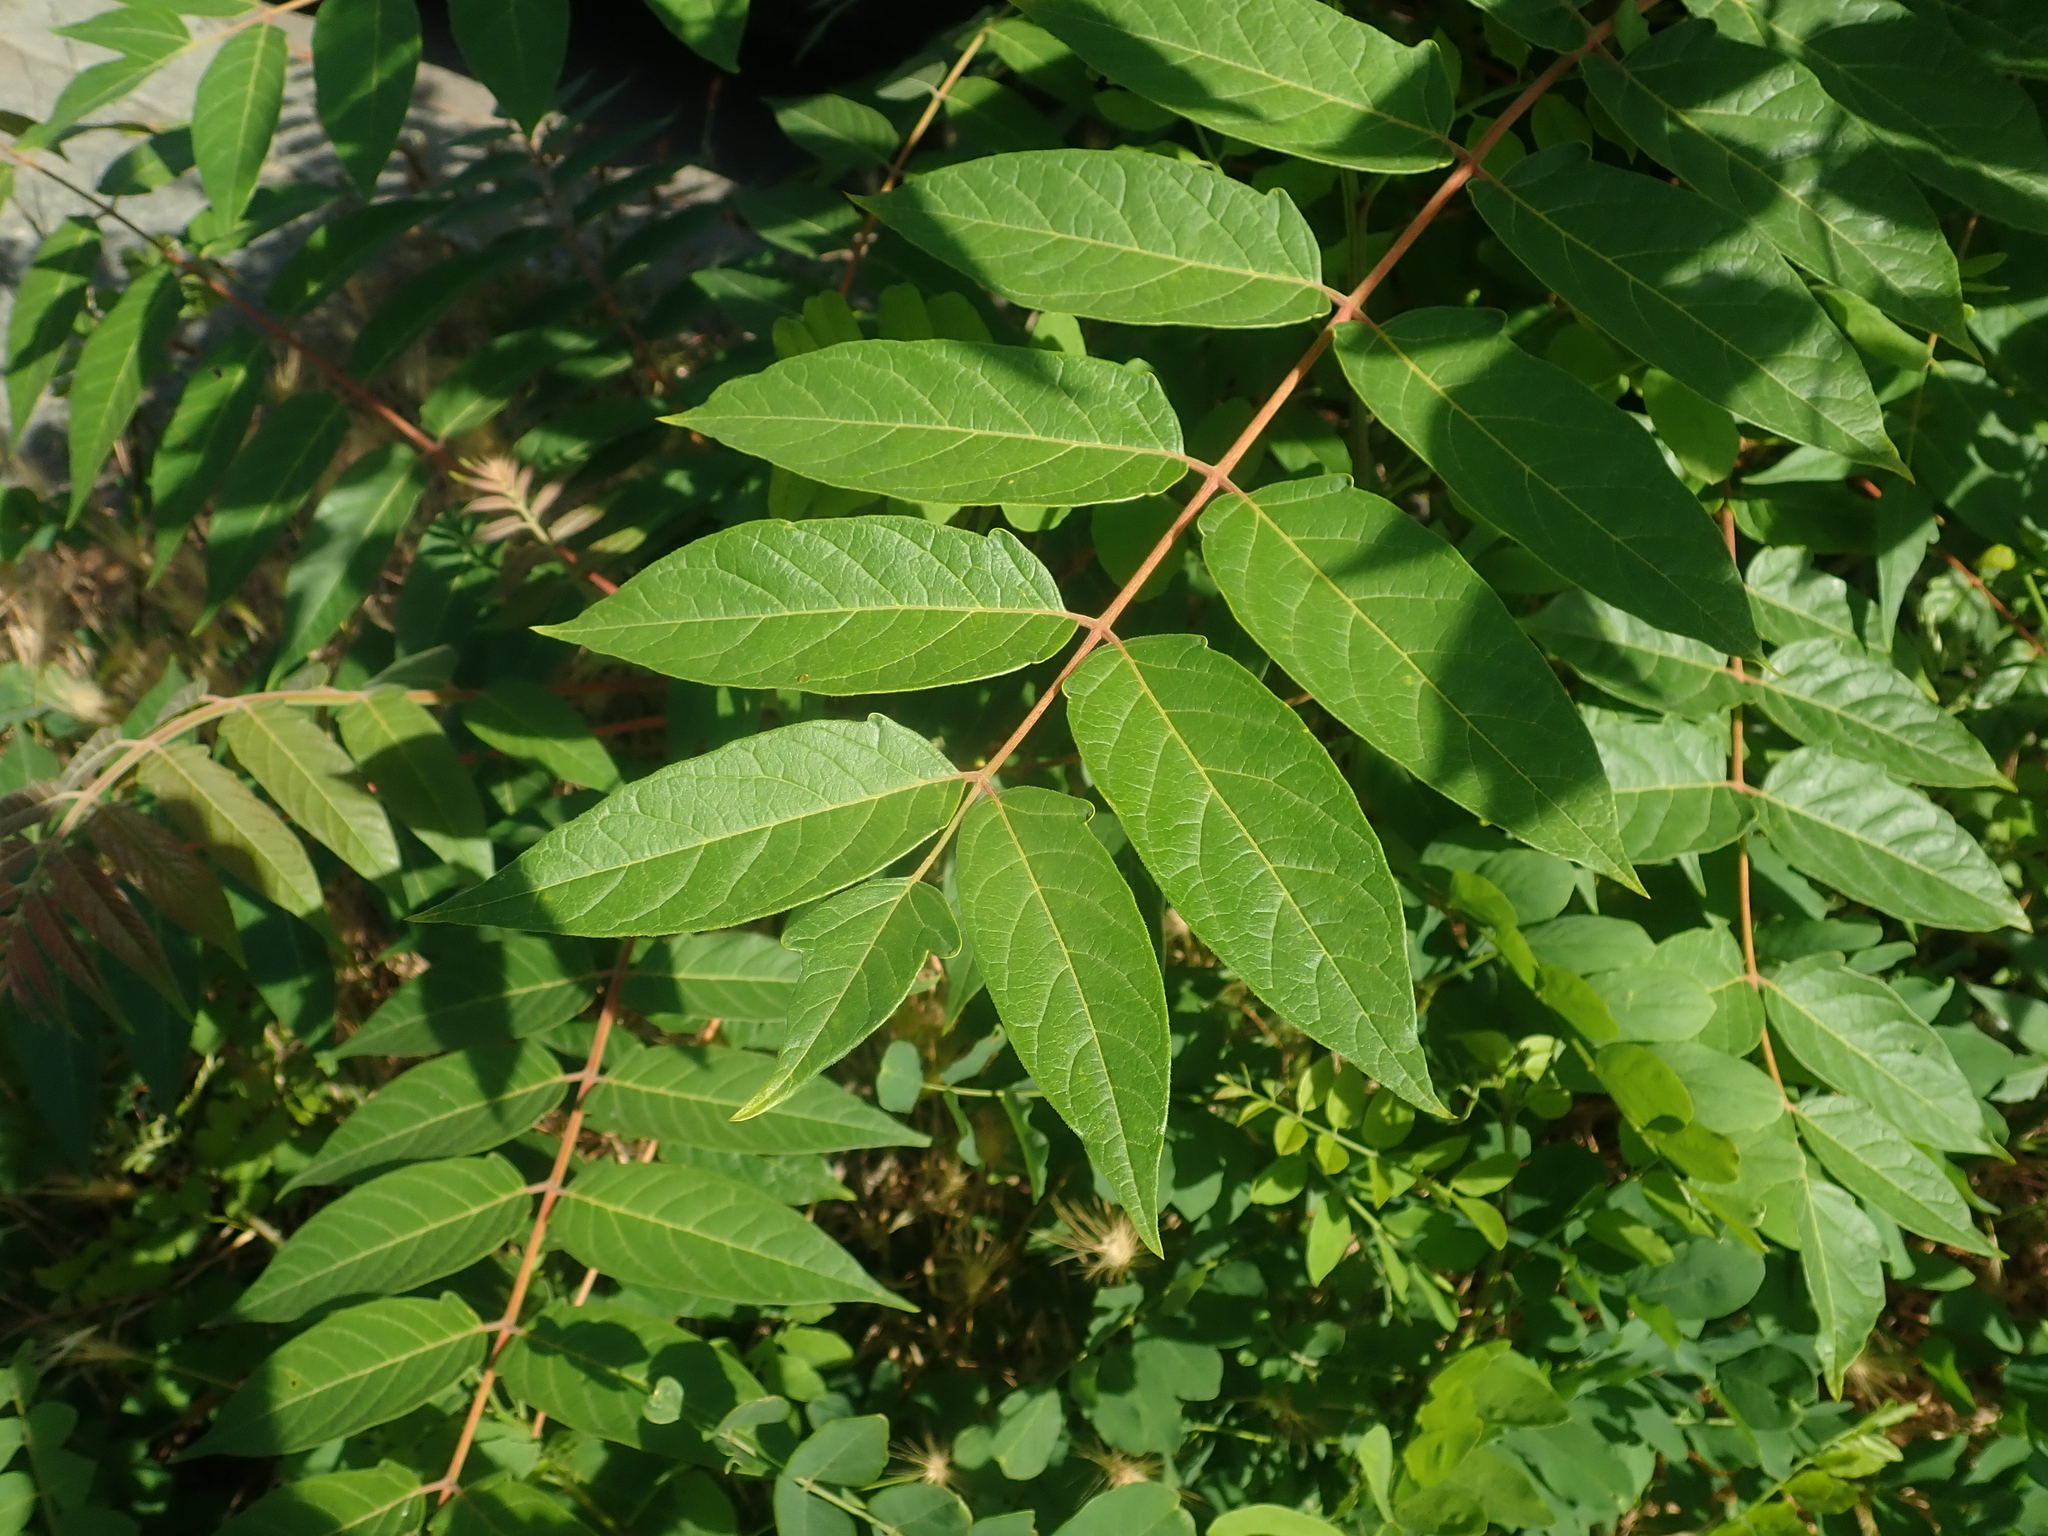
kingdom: Plantae
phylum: Tracheophyta
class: Magnoliopsida
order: Sapindales
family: Simaroubaceae
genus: Ailanthus
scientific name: Ailanthus altissima
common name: Tree-of-heaven
